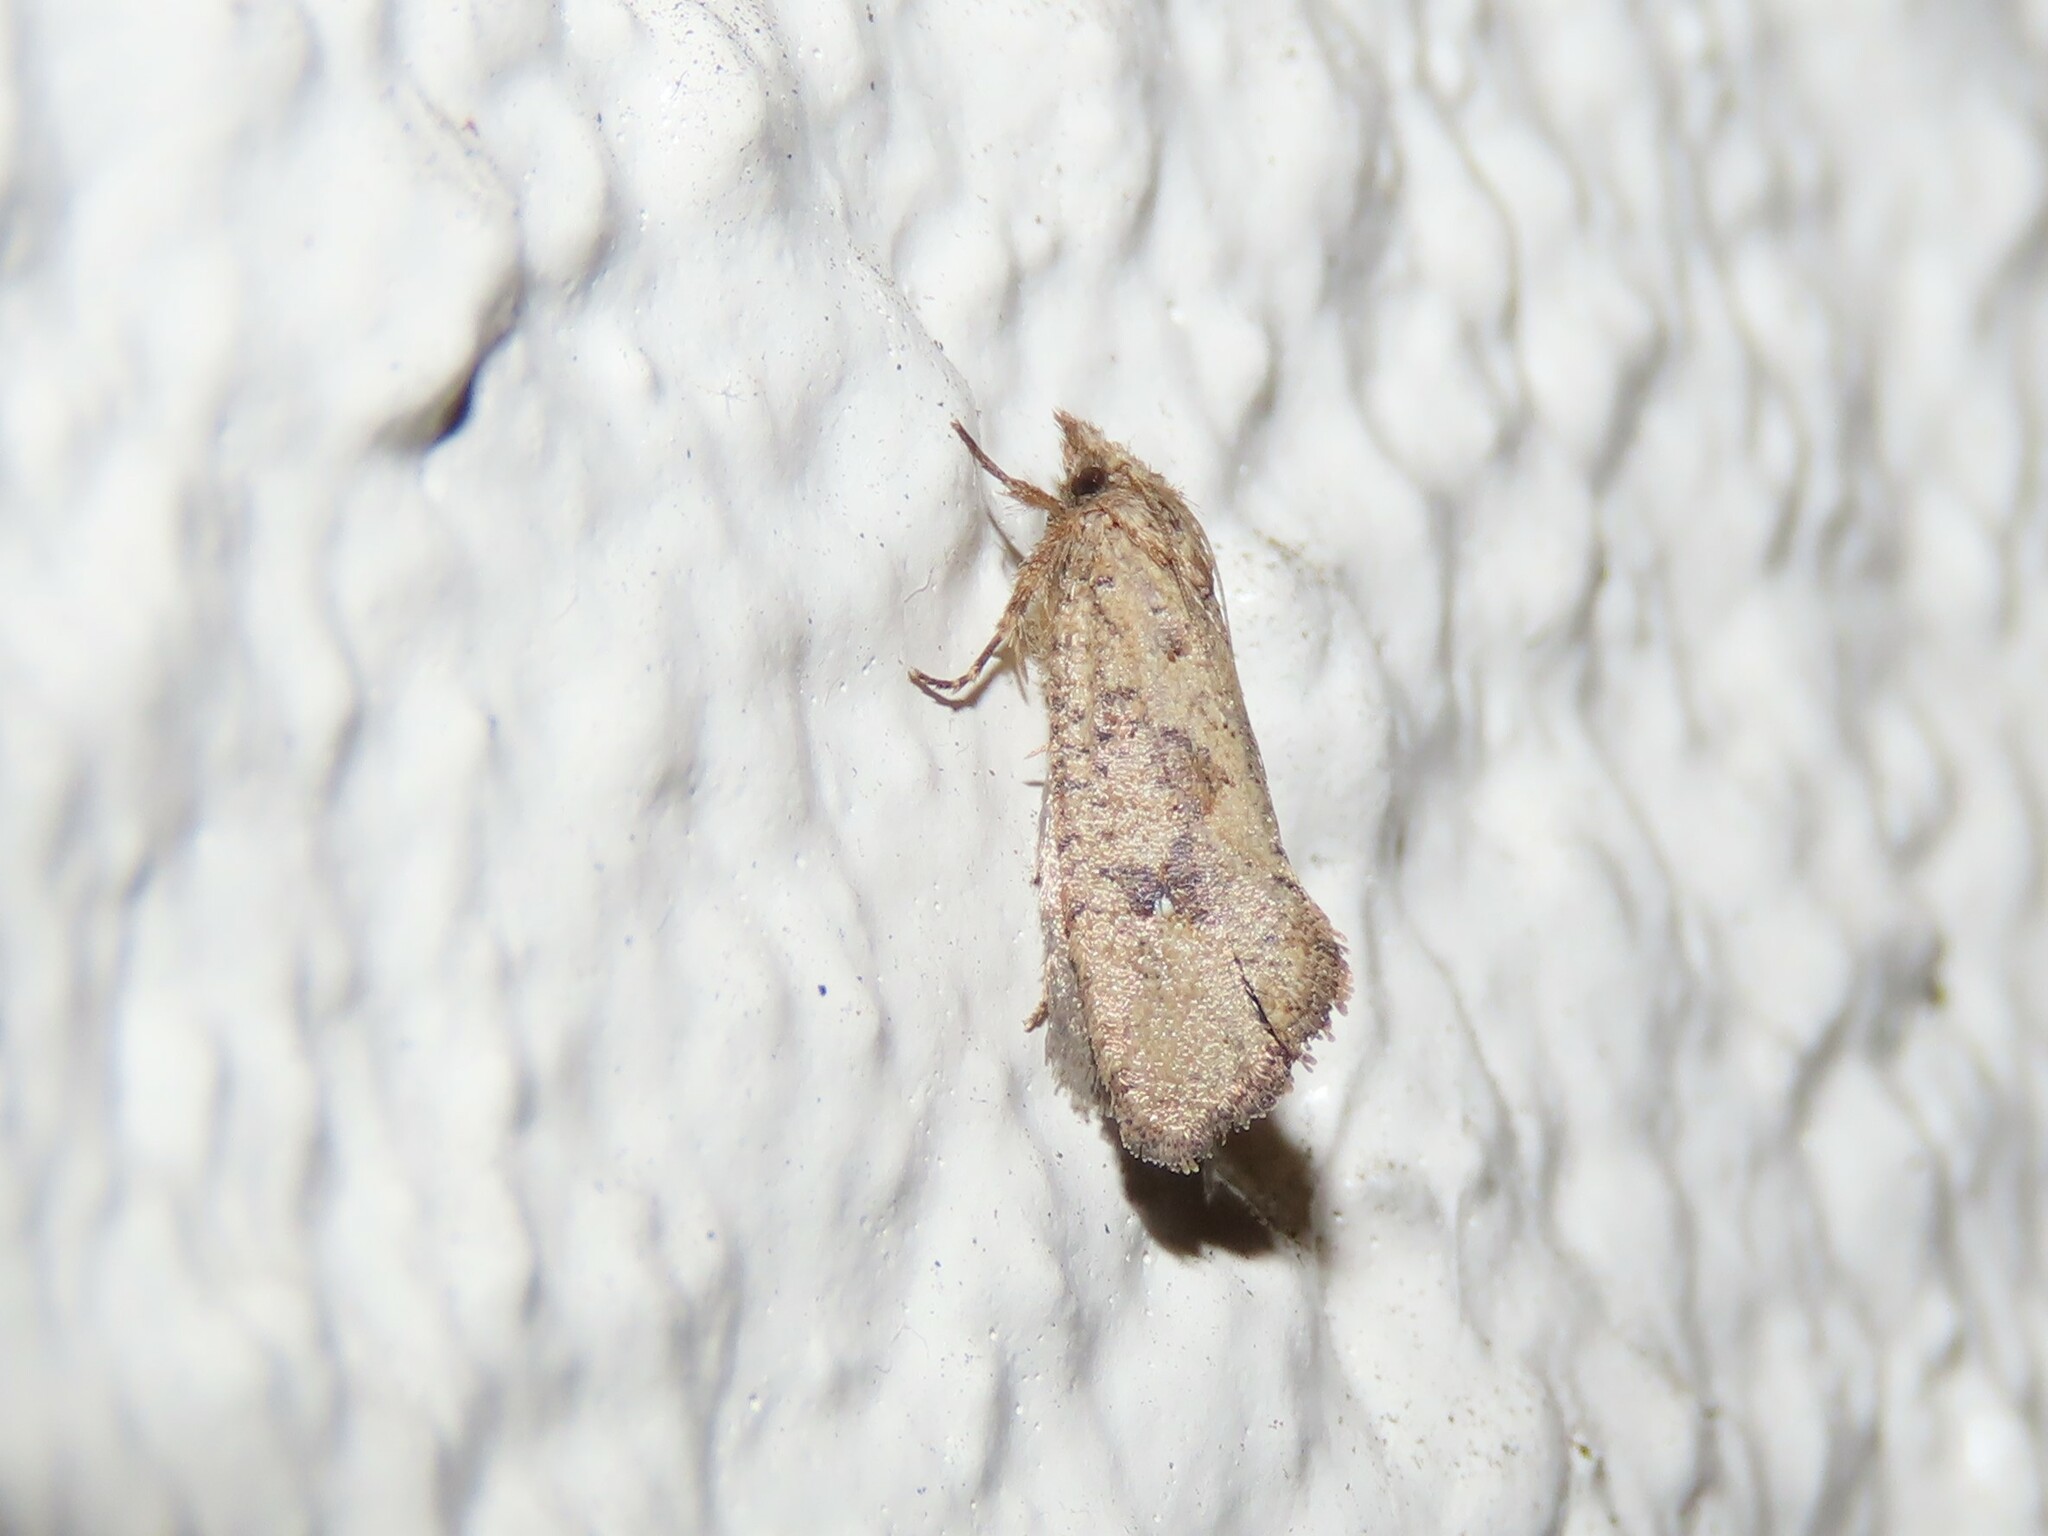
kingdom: Animalia
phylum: Arthropoda
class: Insecta
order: Lepidoptera
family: Tineidae
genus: Acrolophus
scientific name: Acrolophus walsinghami
